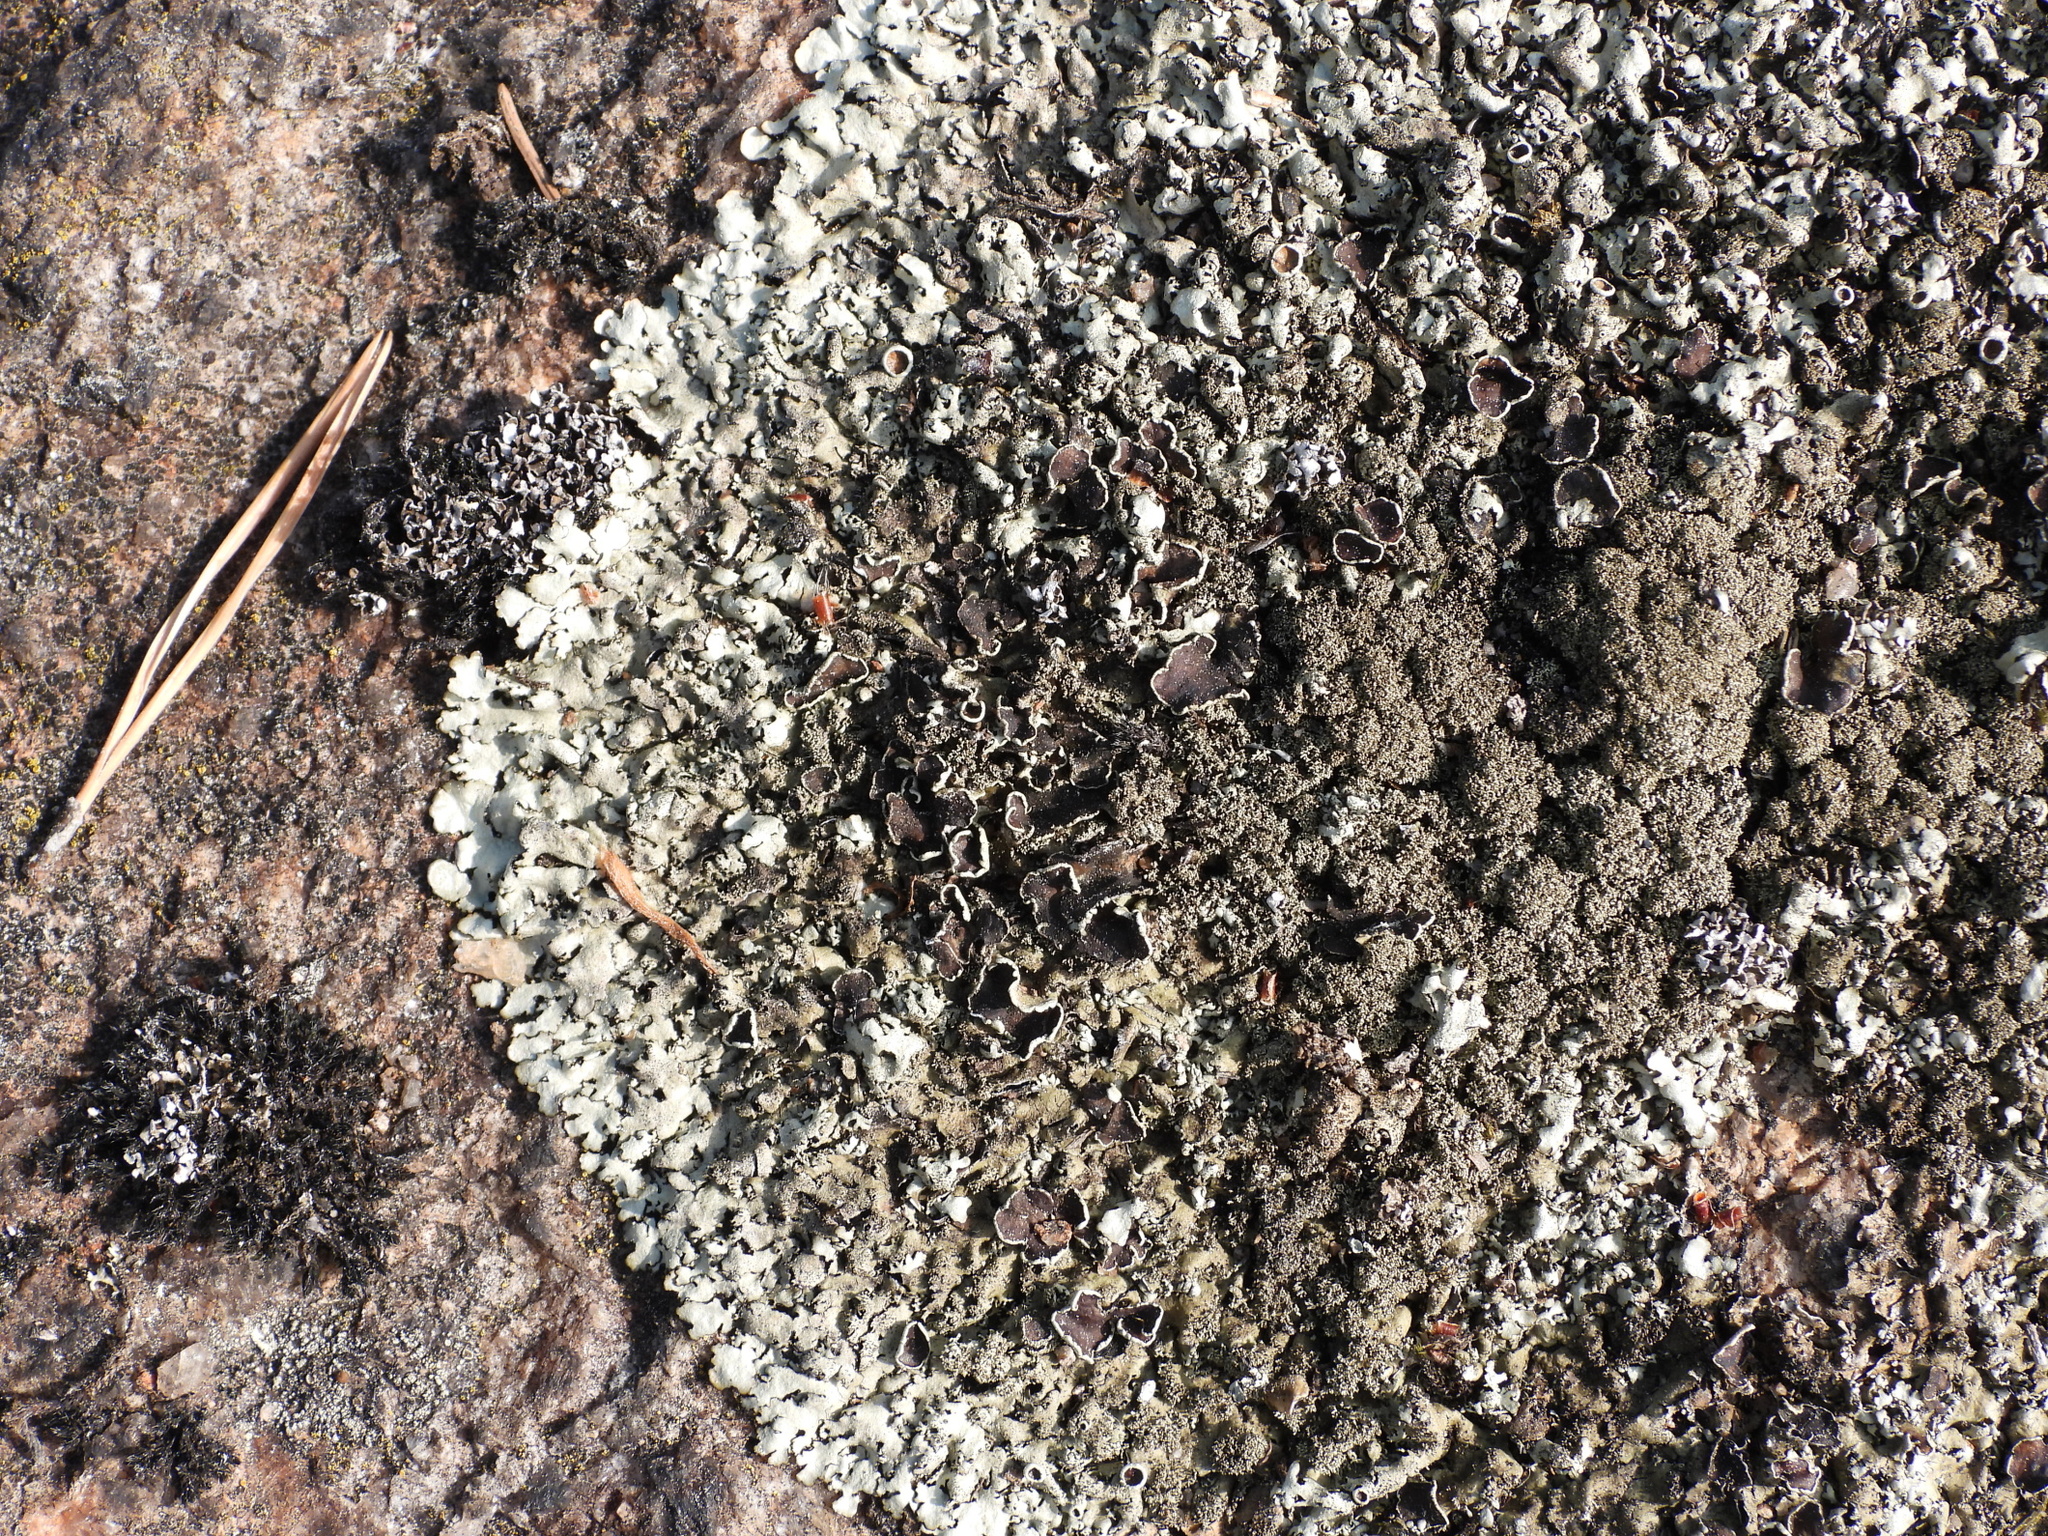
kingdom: Fungi
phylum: Ascomycota
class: Lecanoromycetes
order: Lecanorales
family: Parmeliaceae
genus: Xanthoparmelia
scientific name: Xanthoparmelia conspersa
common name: Peppered rock shield
